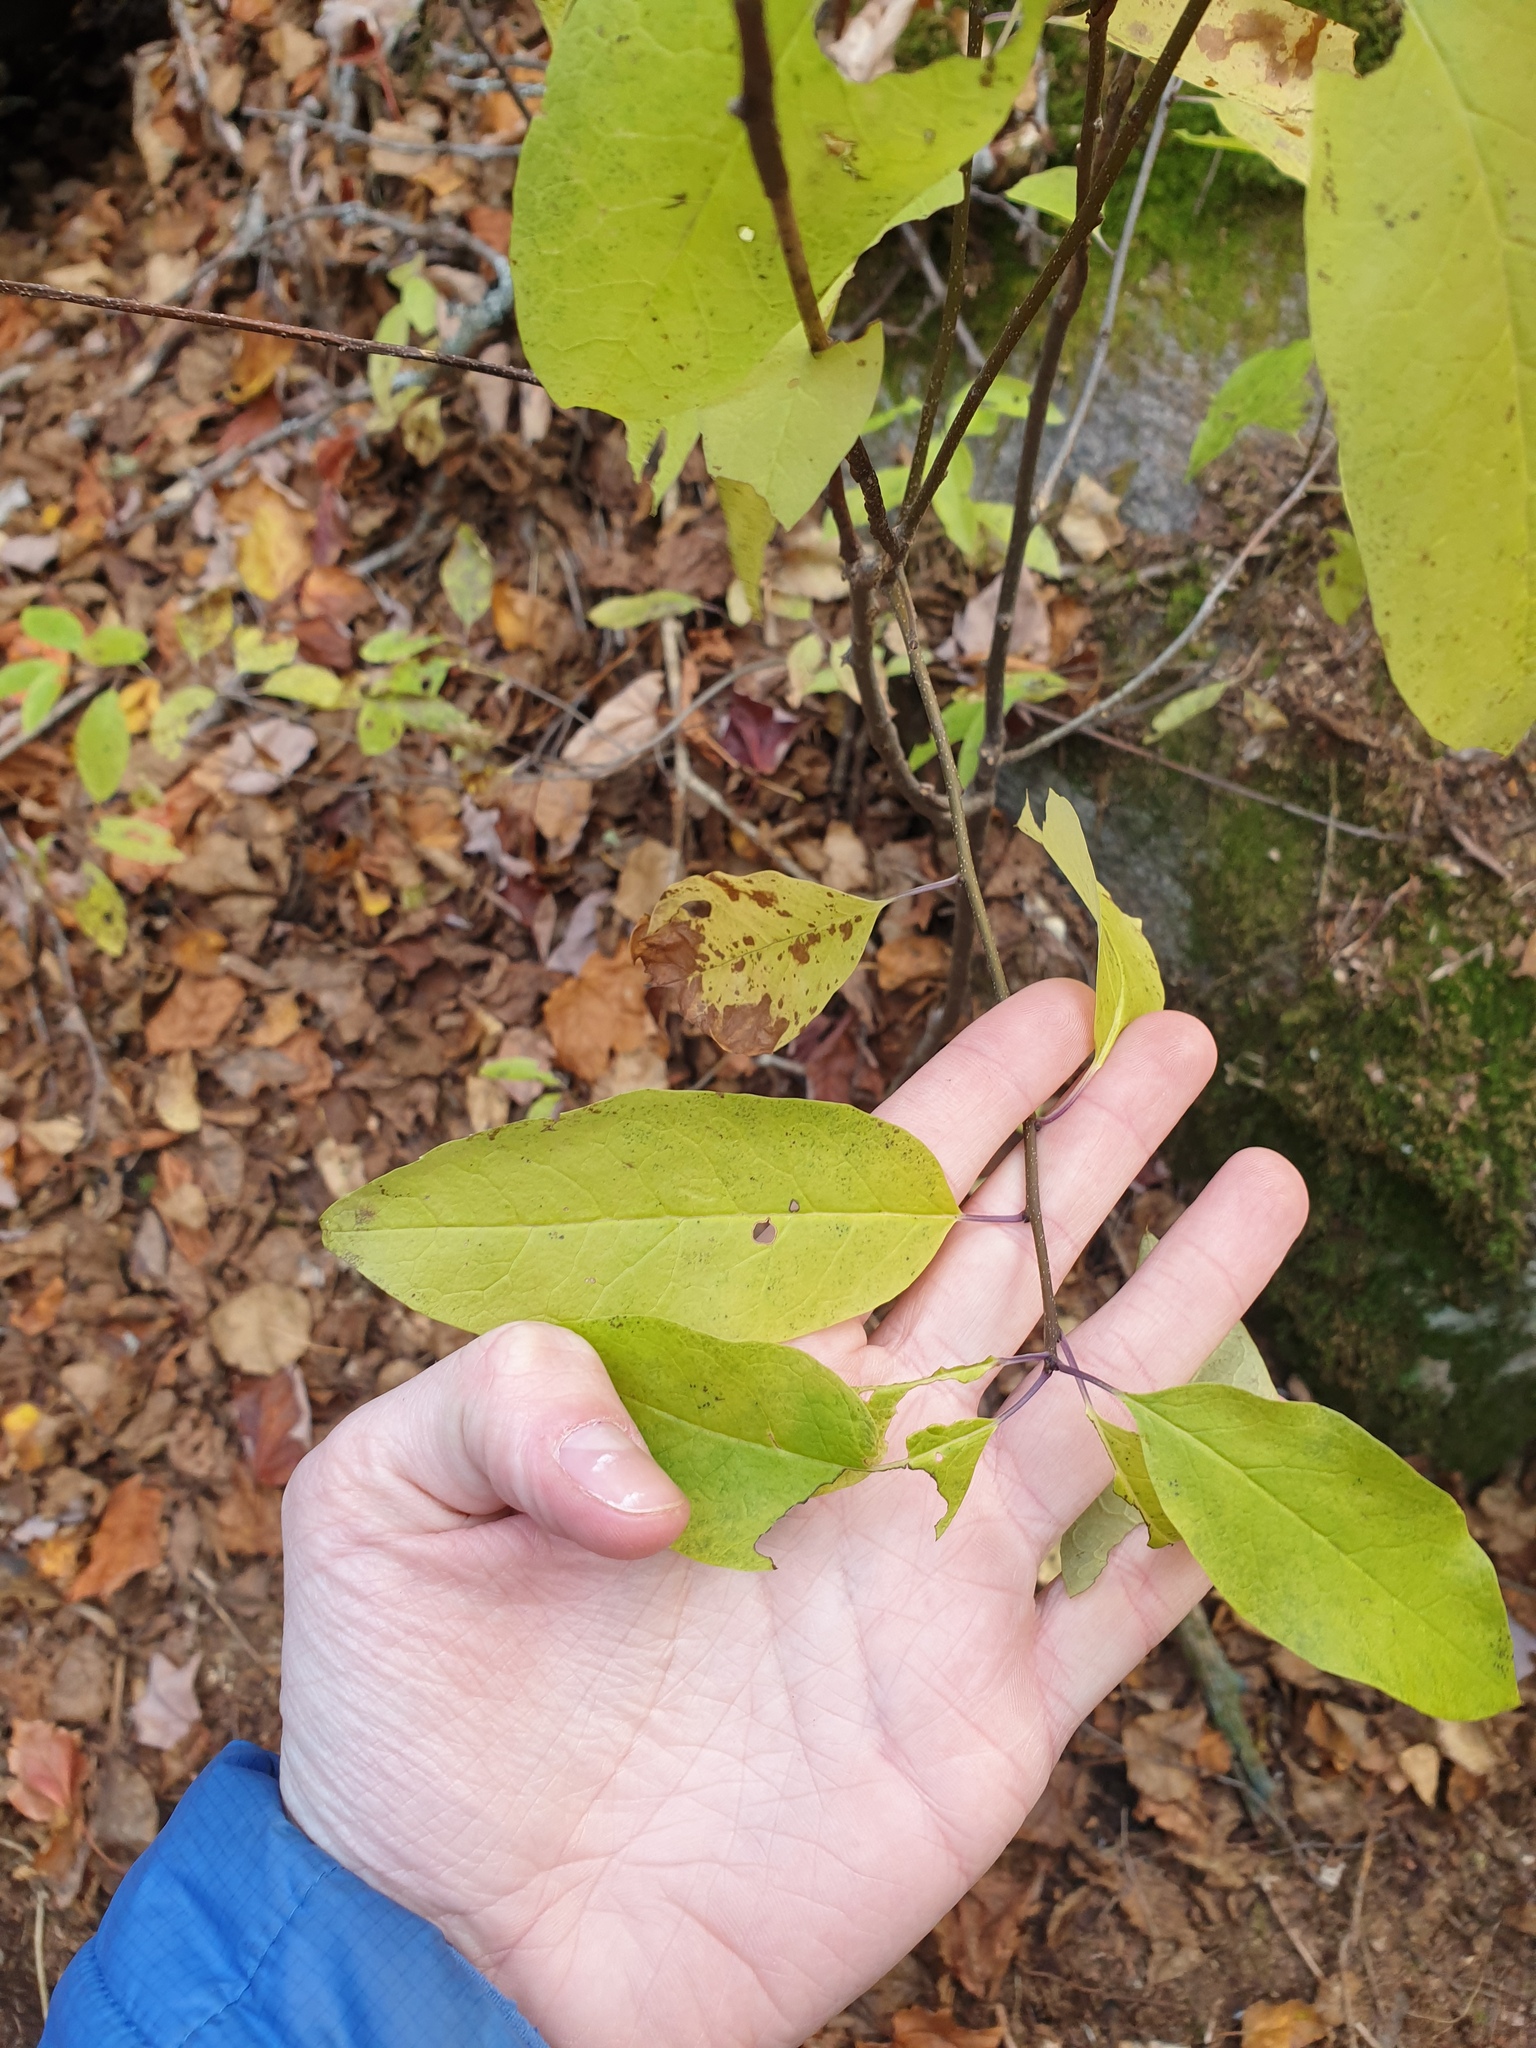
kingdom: Plantae
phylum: Tracheophyta
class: Magnoliopsida
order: Aquifoliales
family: Aquifoliaceae
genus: Ilex
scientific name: Ilex mucronata
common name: Catberry
